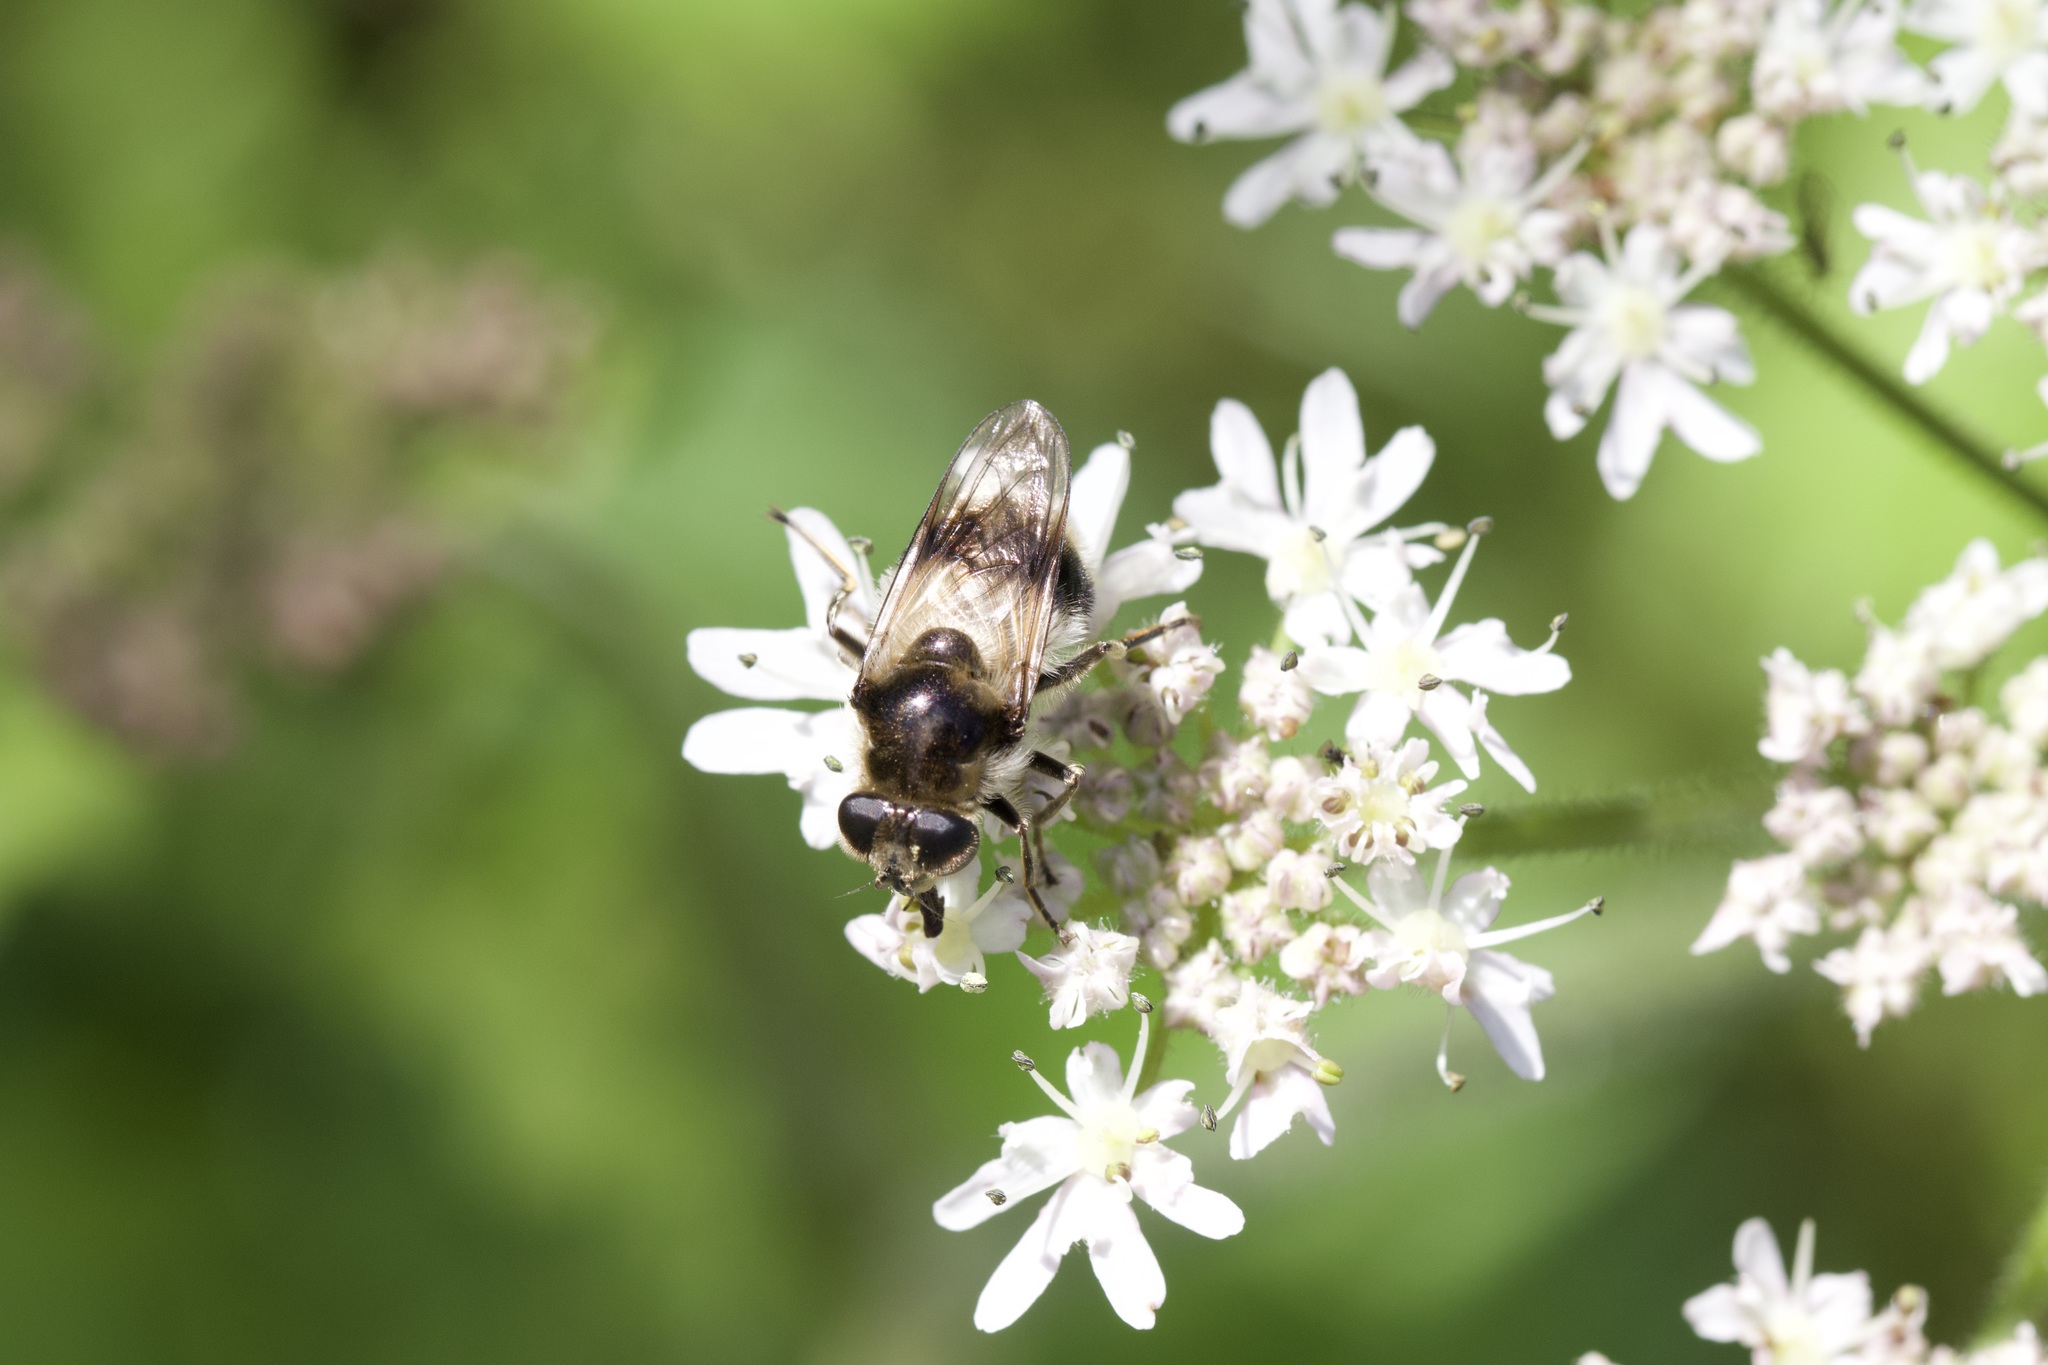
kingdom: Animalia
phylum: Arthropoda
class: Insecta
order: Diptera
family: Syrphidae
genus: Cheilosia
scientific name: Cheilosia illustrata
